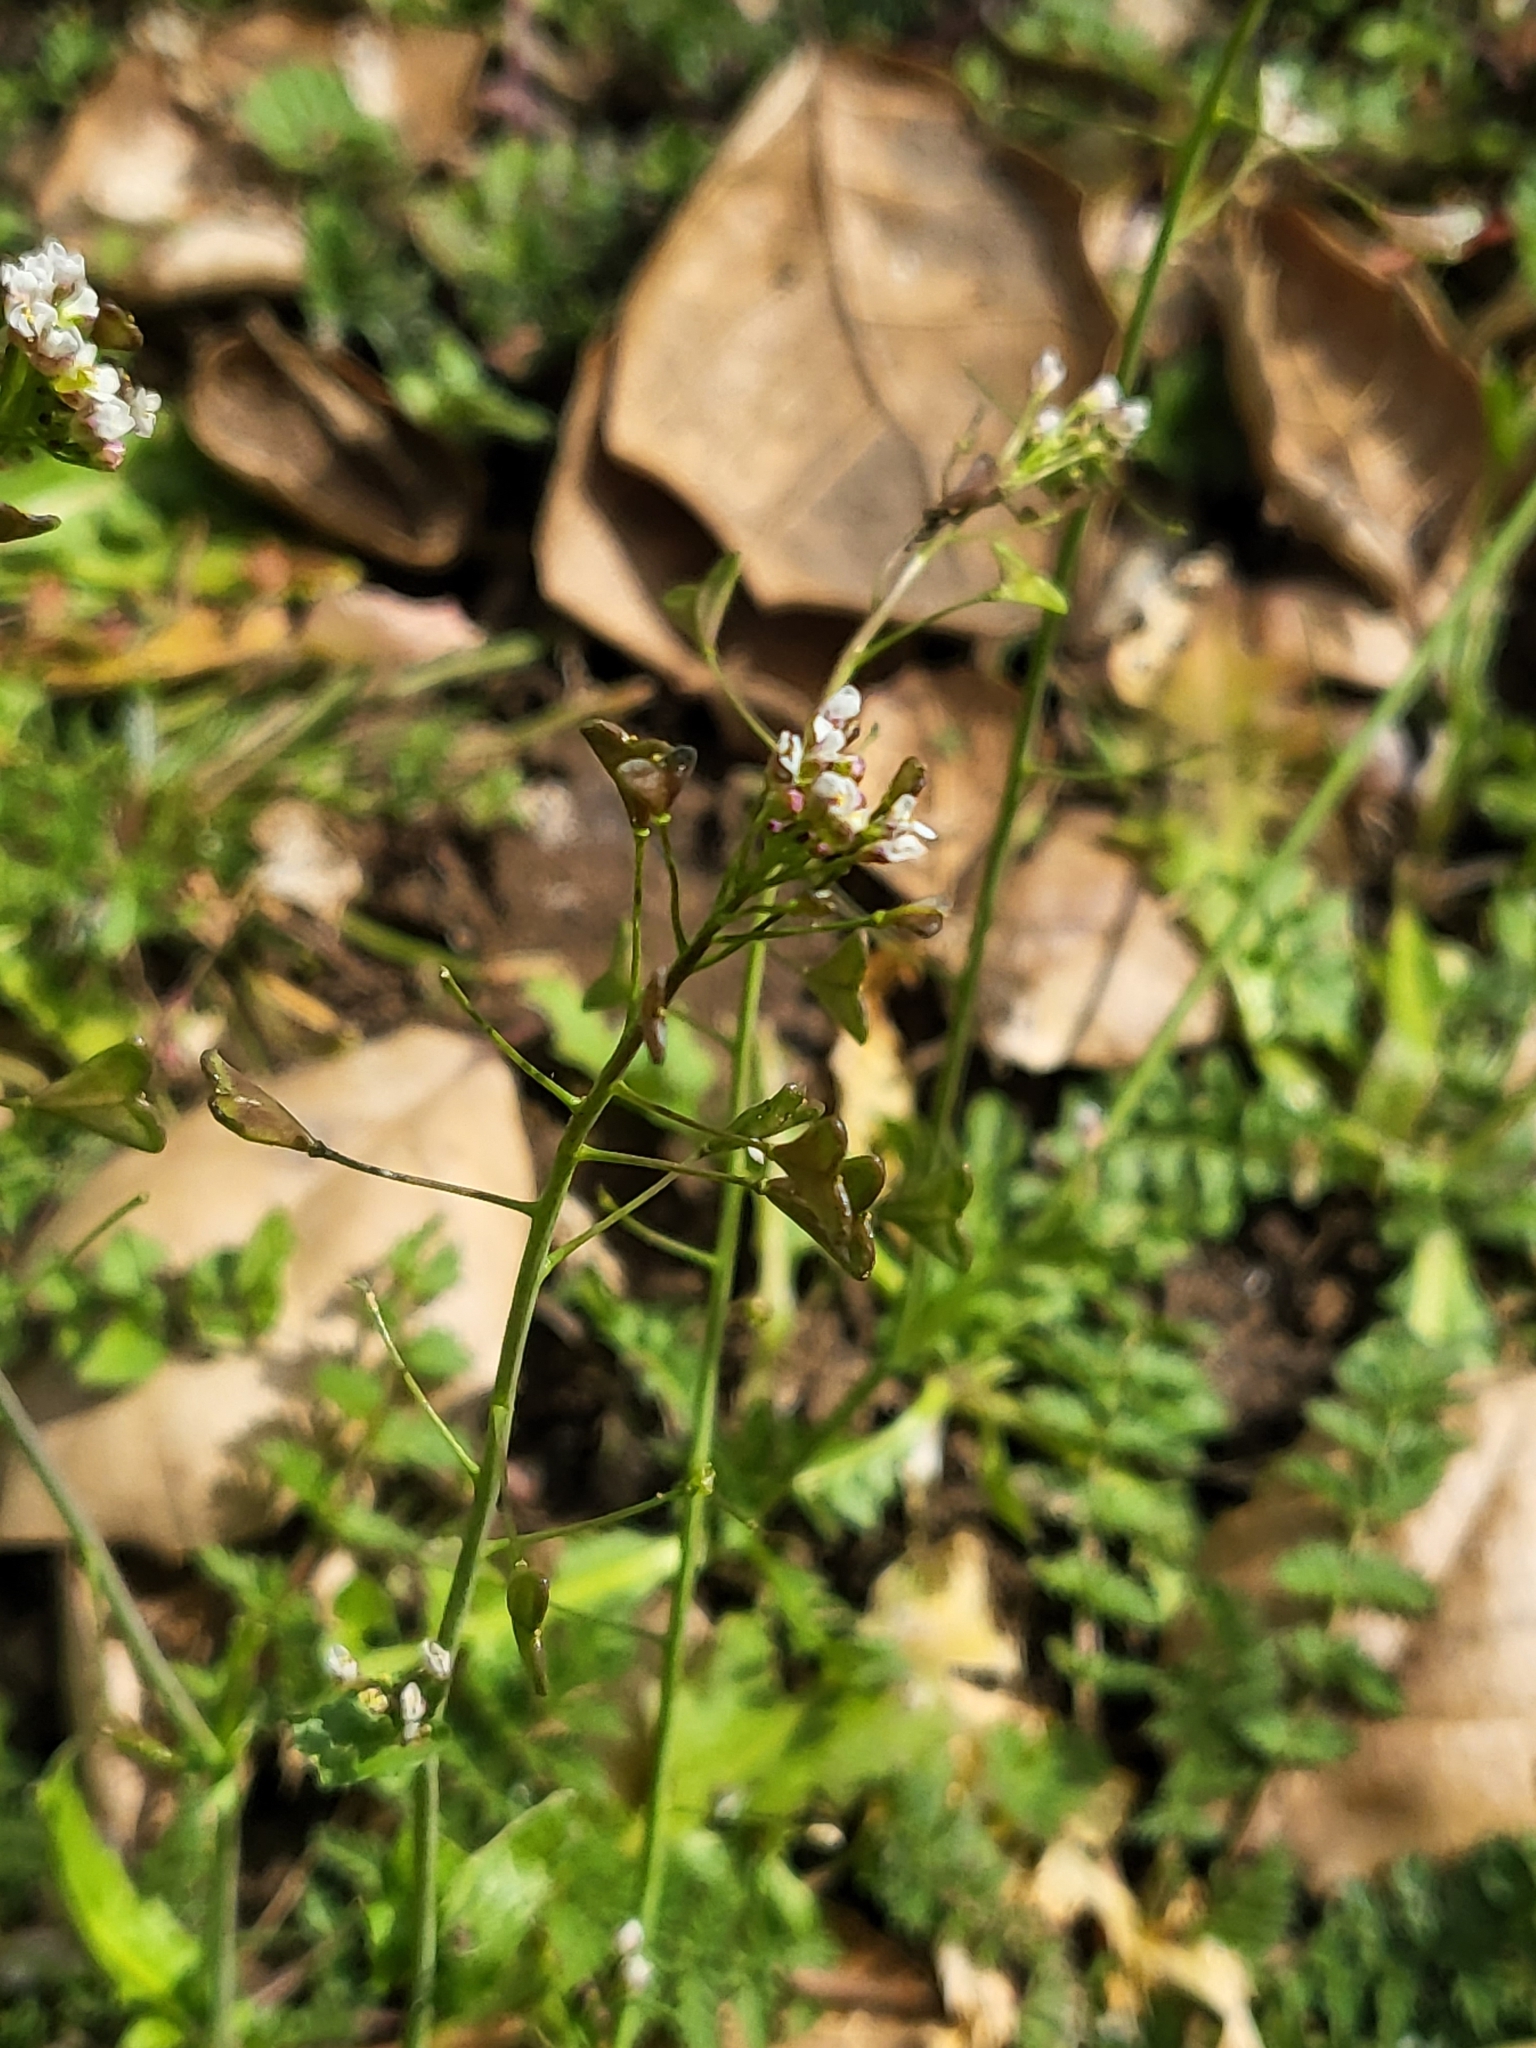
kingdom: Plantae
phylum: Tracheophyta
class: Magnoliopsida
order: Brassicales
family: Brassicaceae
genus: Capsella
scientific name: Capsella bursa-pastoris
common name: Shepherd's purse
